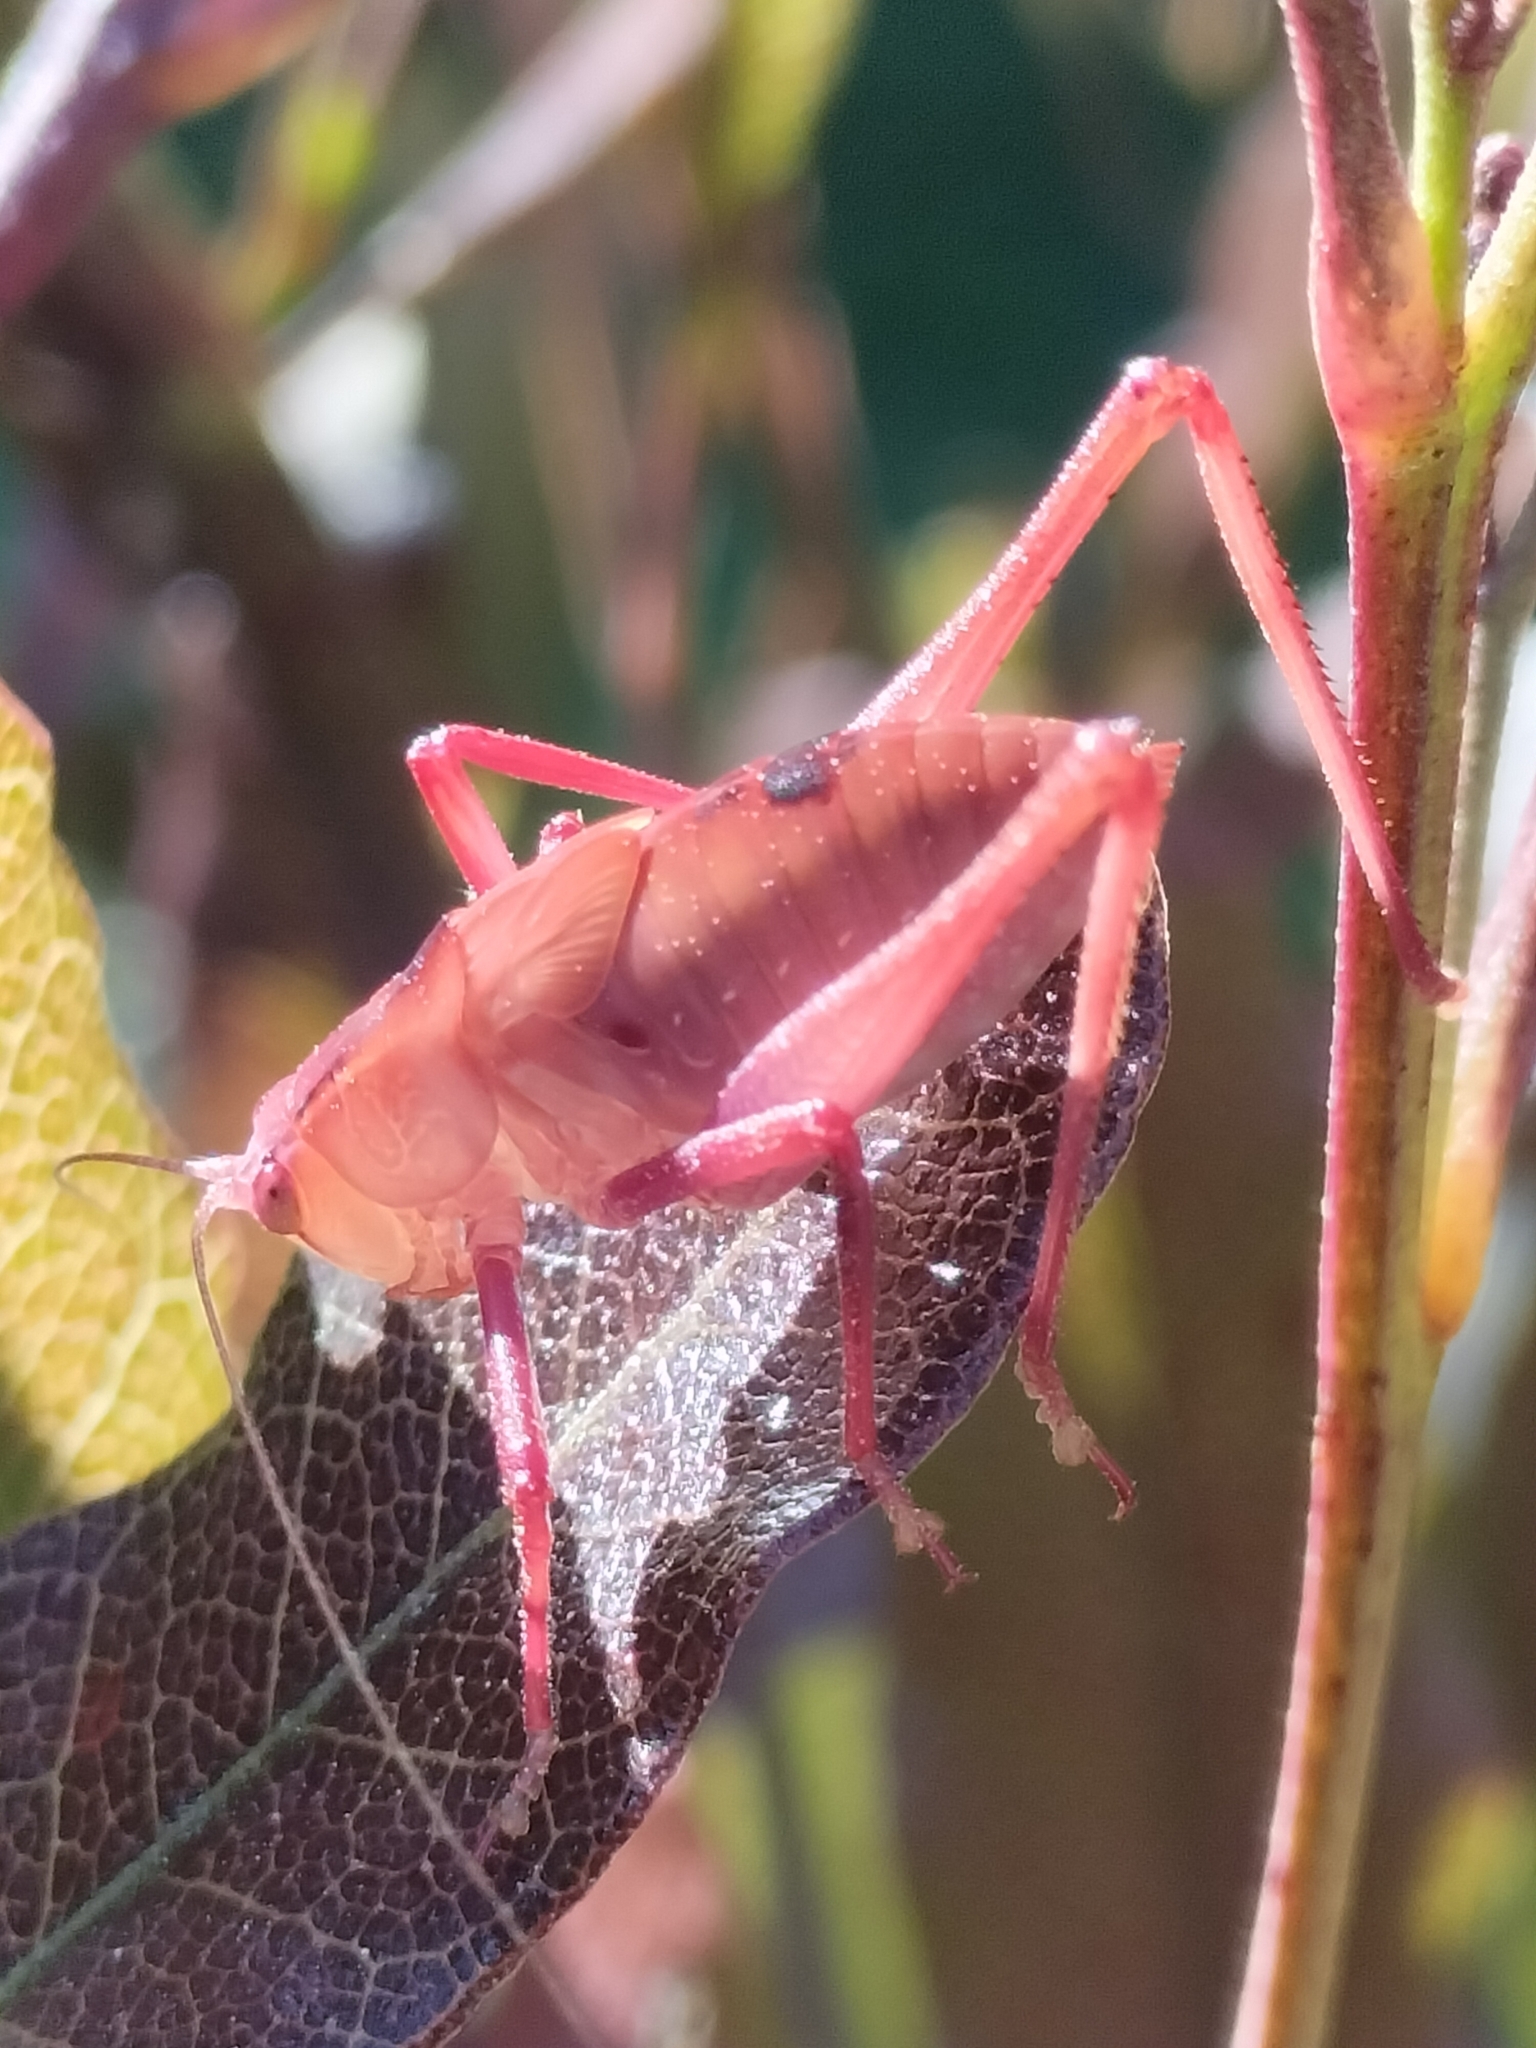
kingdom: Animalia
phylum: Arthropoda
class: Insecta
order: Orthoptera
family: Tettigoniidae
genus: Caedicia
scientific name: Caedicia simplex
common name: Common garden katydid
